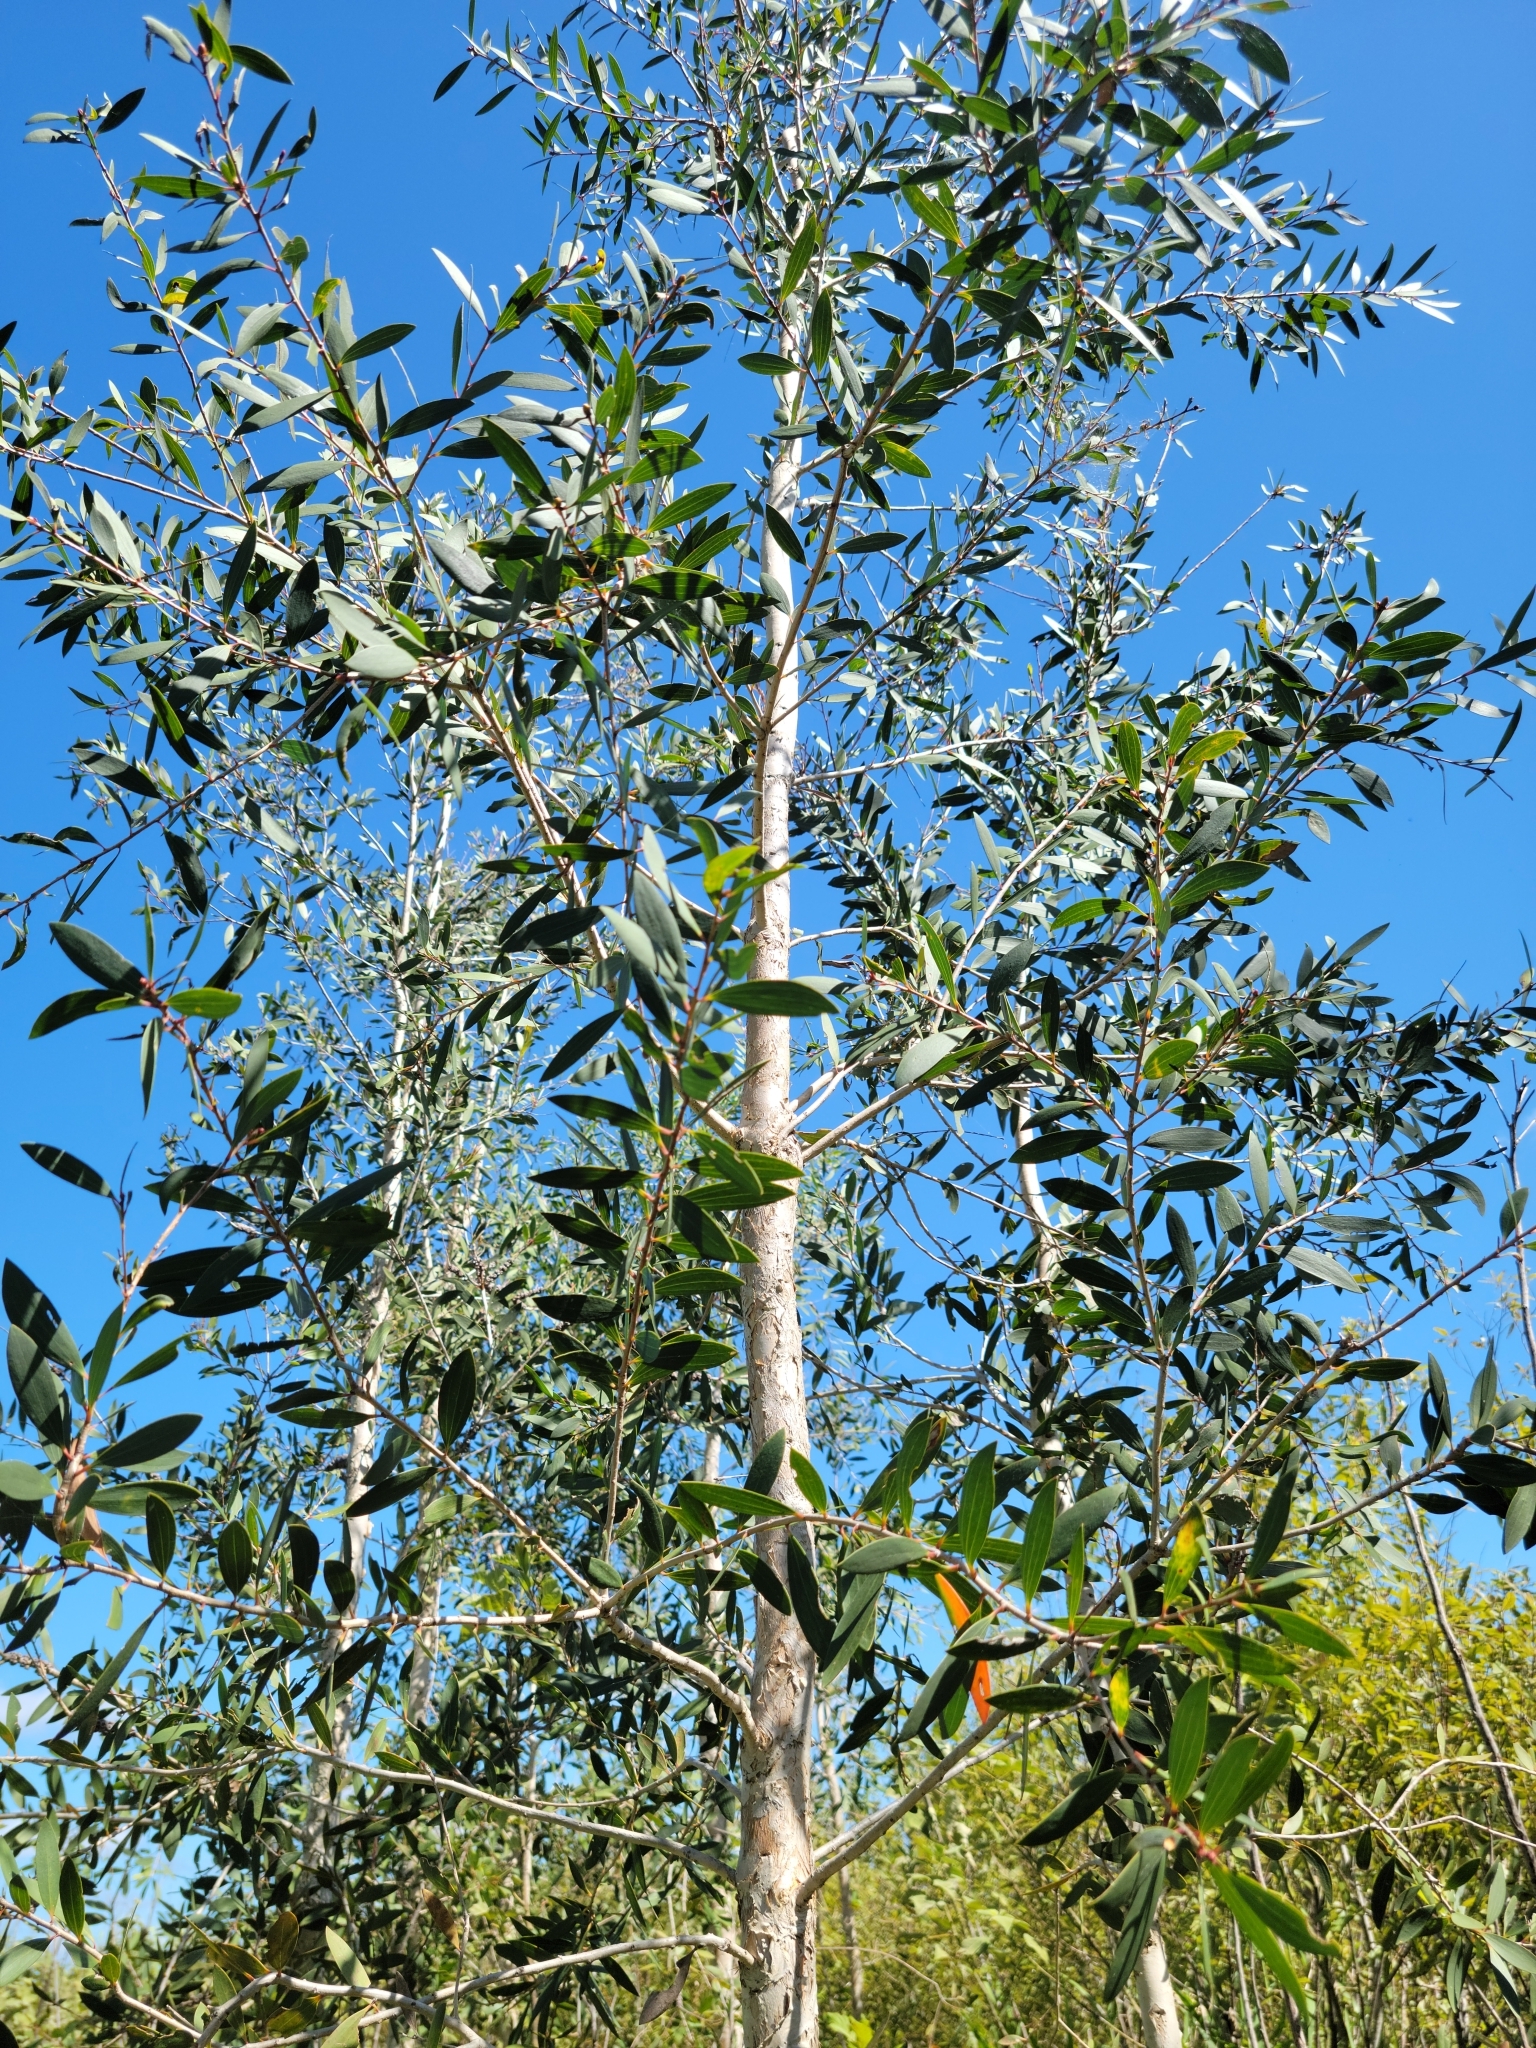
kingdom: Plantae
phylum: Tracheophyta
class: Magnoliopsida
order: Myrtales
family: Myrtaceae
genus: Melaleuca
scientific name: Melaleuca quinquenervia
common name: Punktree
